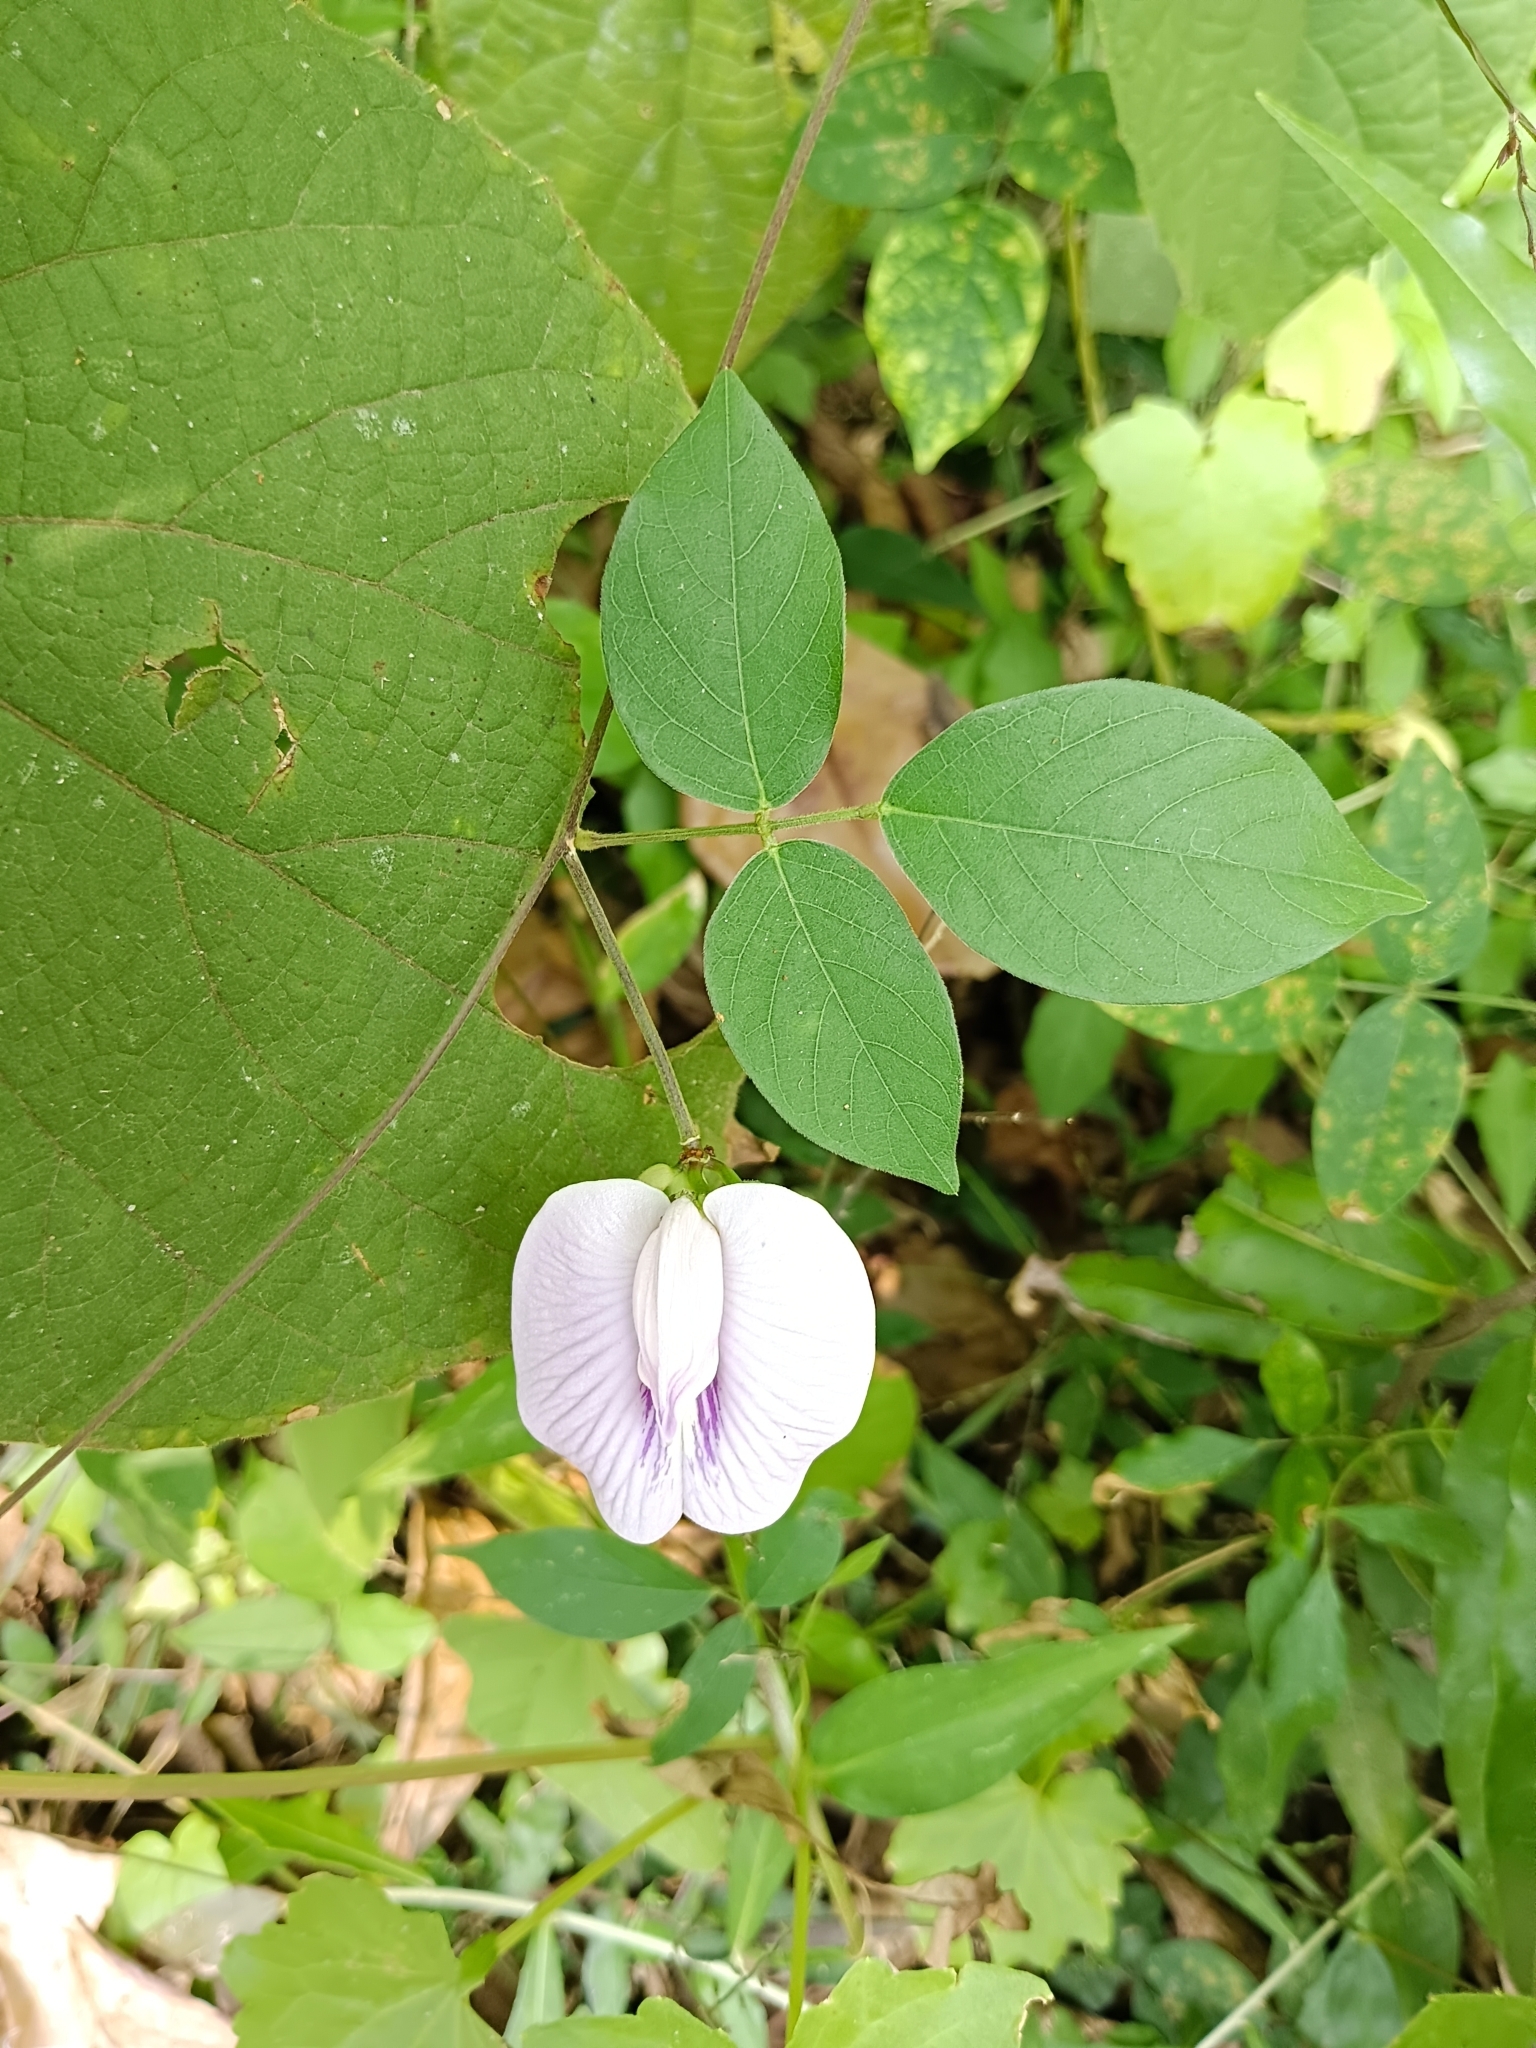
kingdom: Plantae
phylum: Tracheophyta
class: Magnoliopsida
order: Fabales
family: Fabaceae
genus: Centrosema
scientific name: Centrosema molle
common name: Soft butterfly pea
